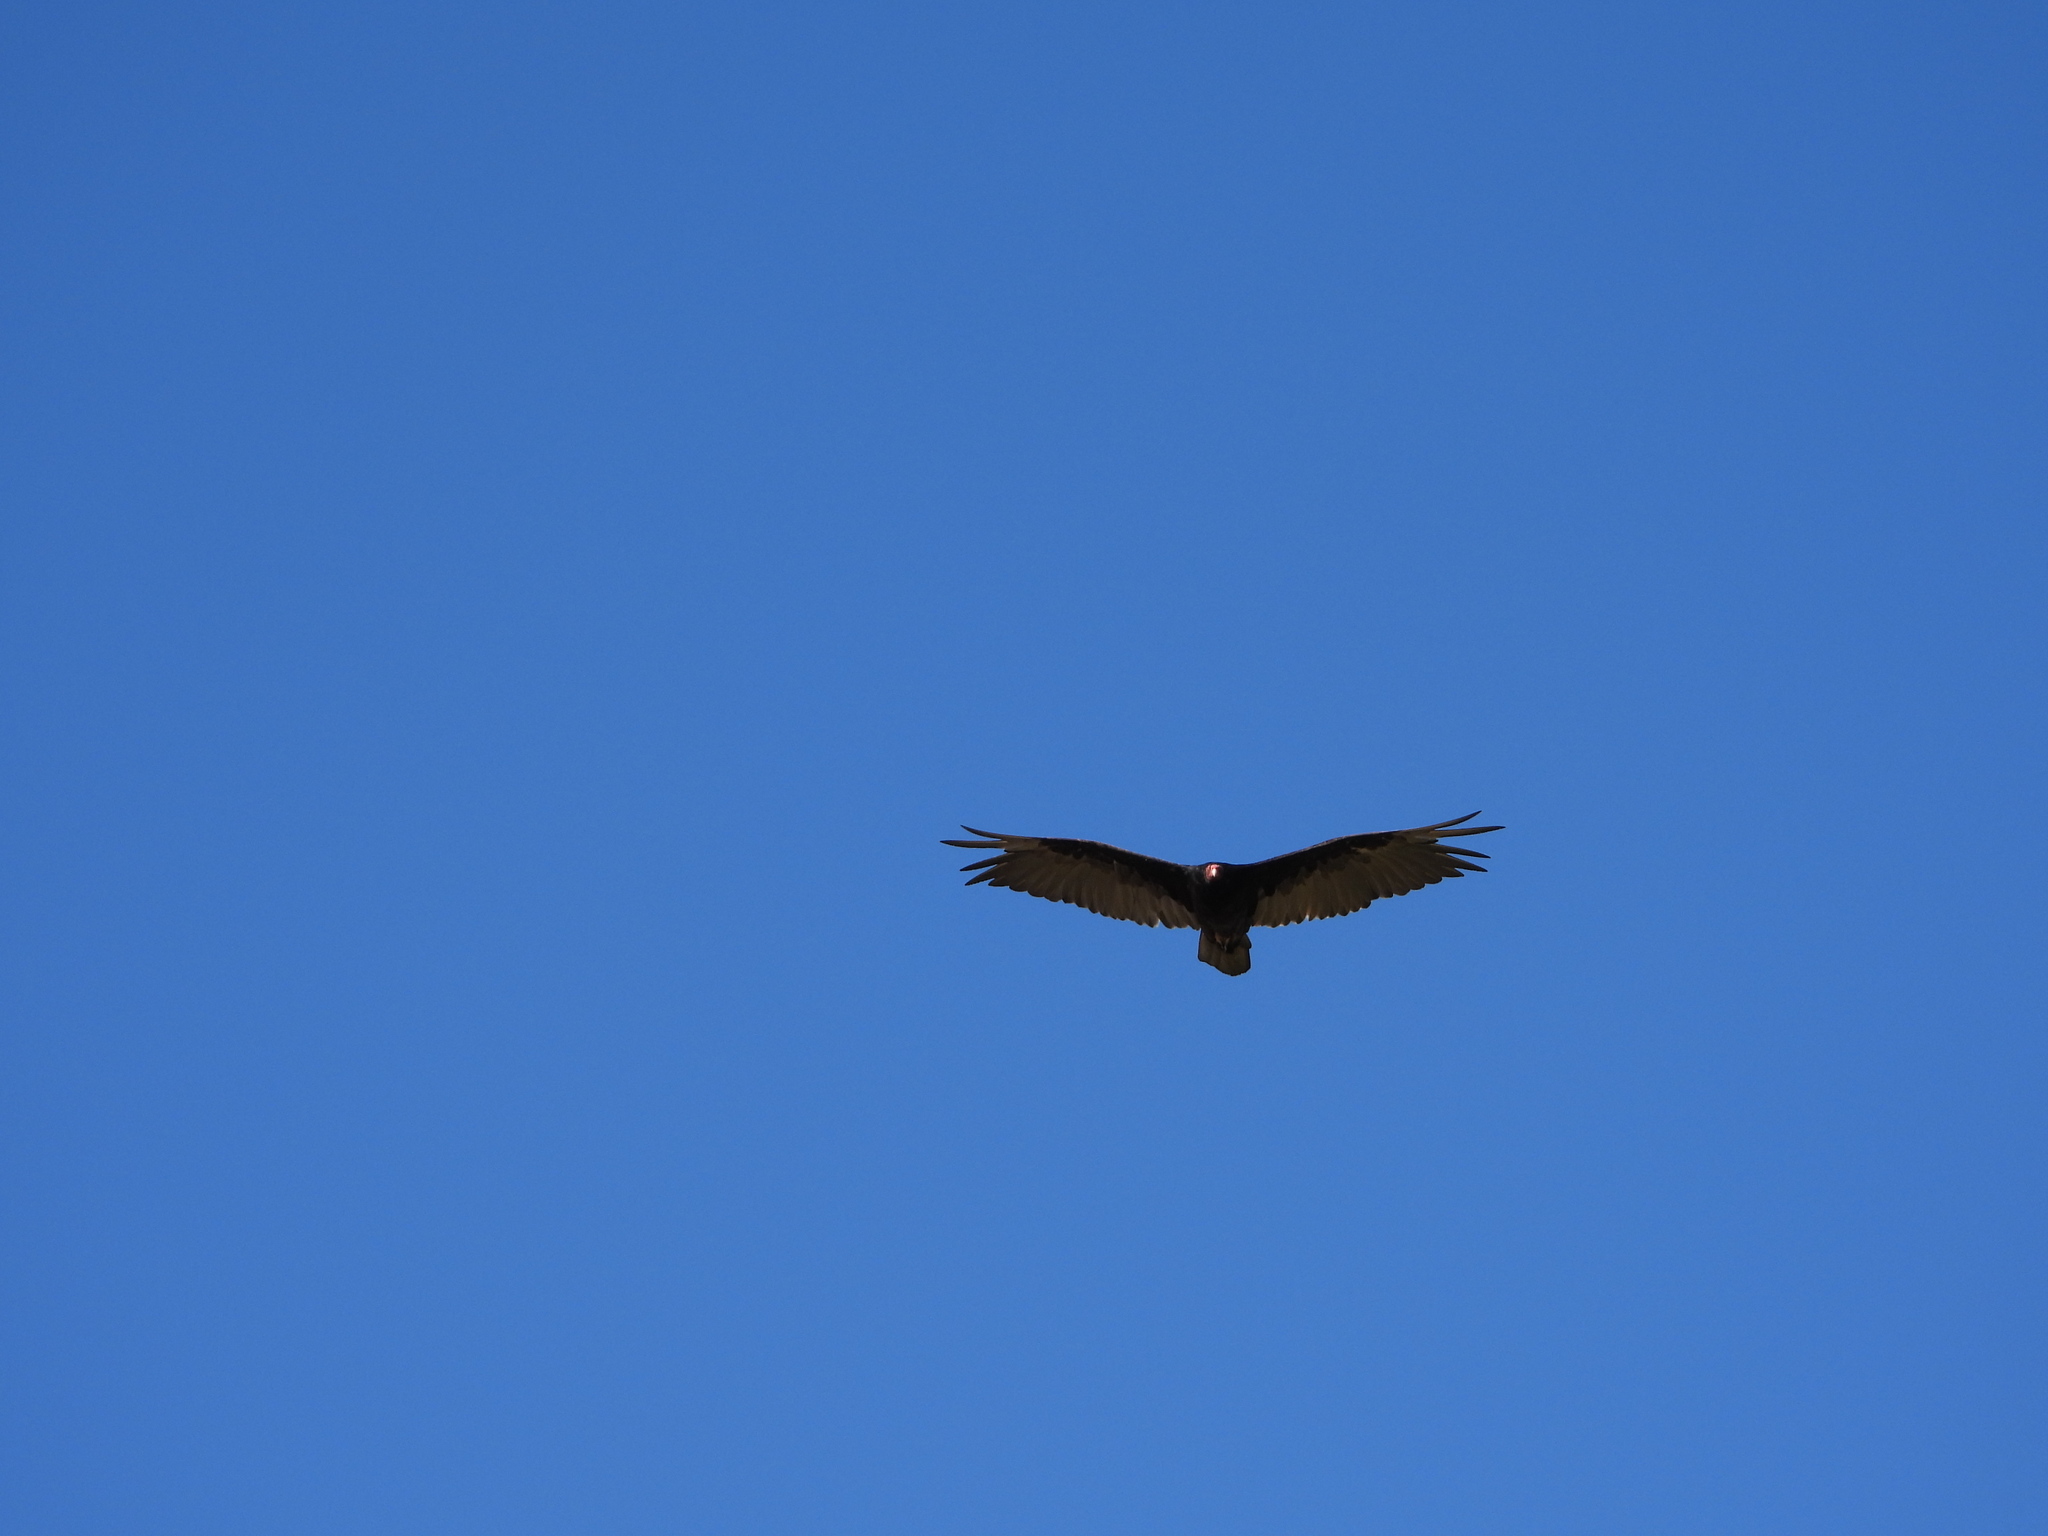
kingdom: Animalia
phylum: Chordata
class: Aves
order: Accipitriformes
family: Cathartidae
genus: Cathartes
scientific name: Cathartes aura
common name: Turkey vulture
